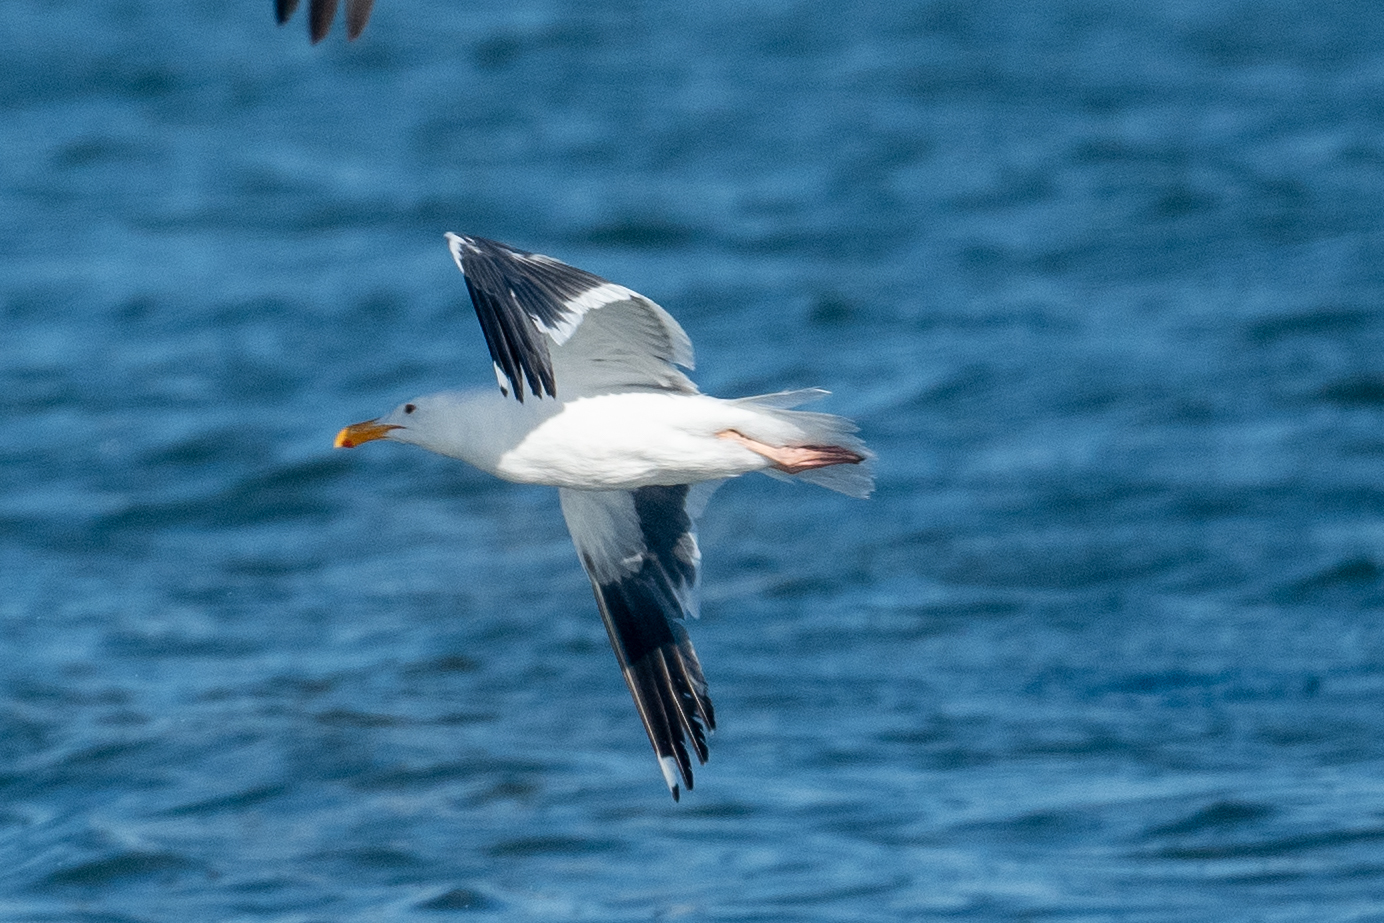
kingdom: Animalia
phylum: Chordata
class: Aves
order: Charadriiformes
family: Laridae
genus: Larus
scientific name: Larus occidentalis
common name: Western gull
